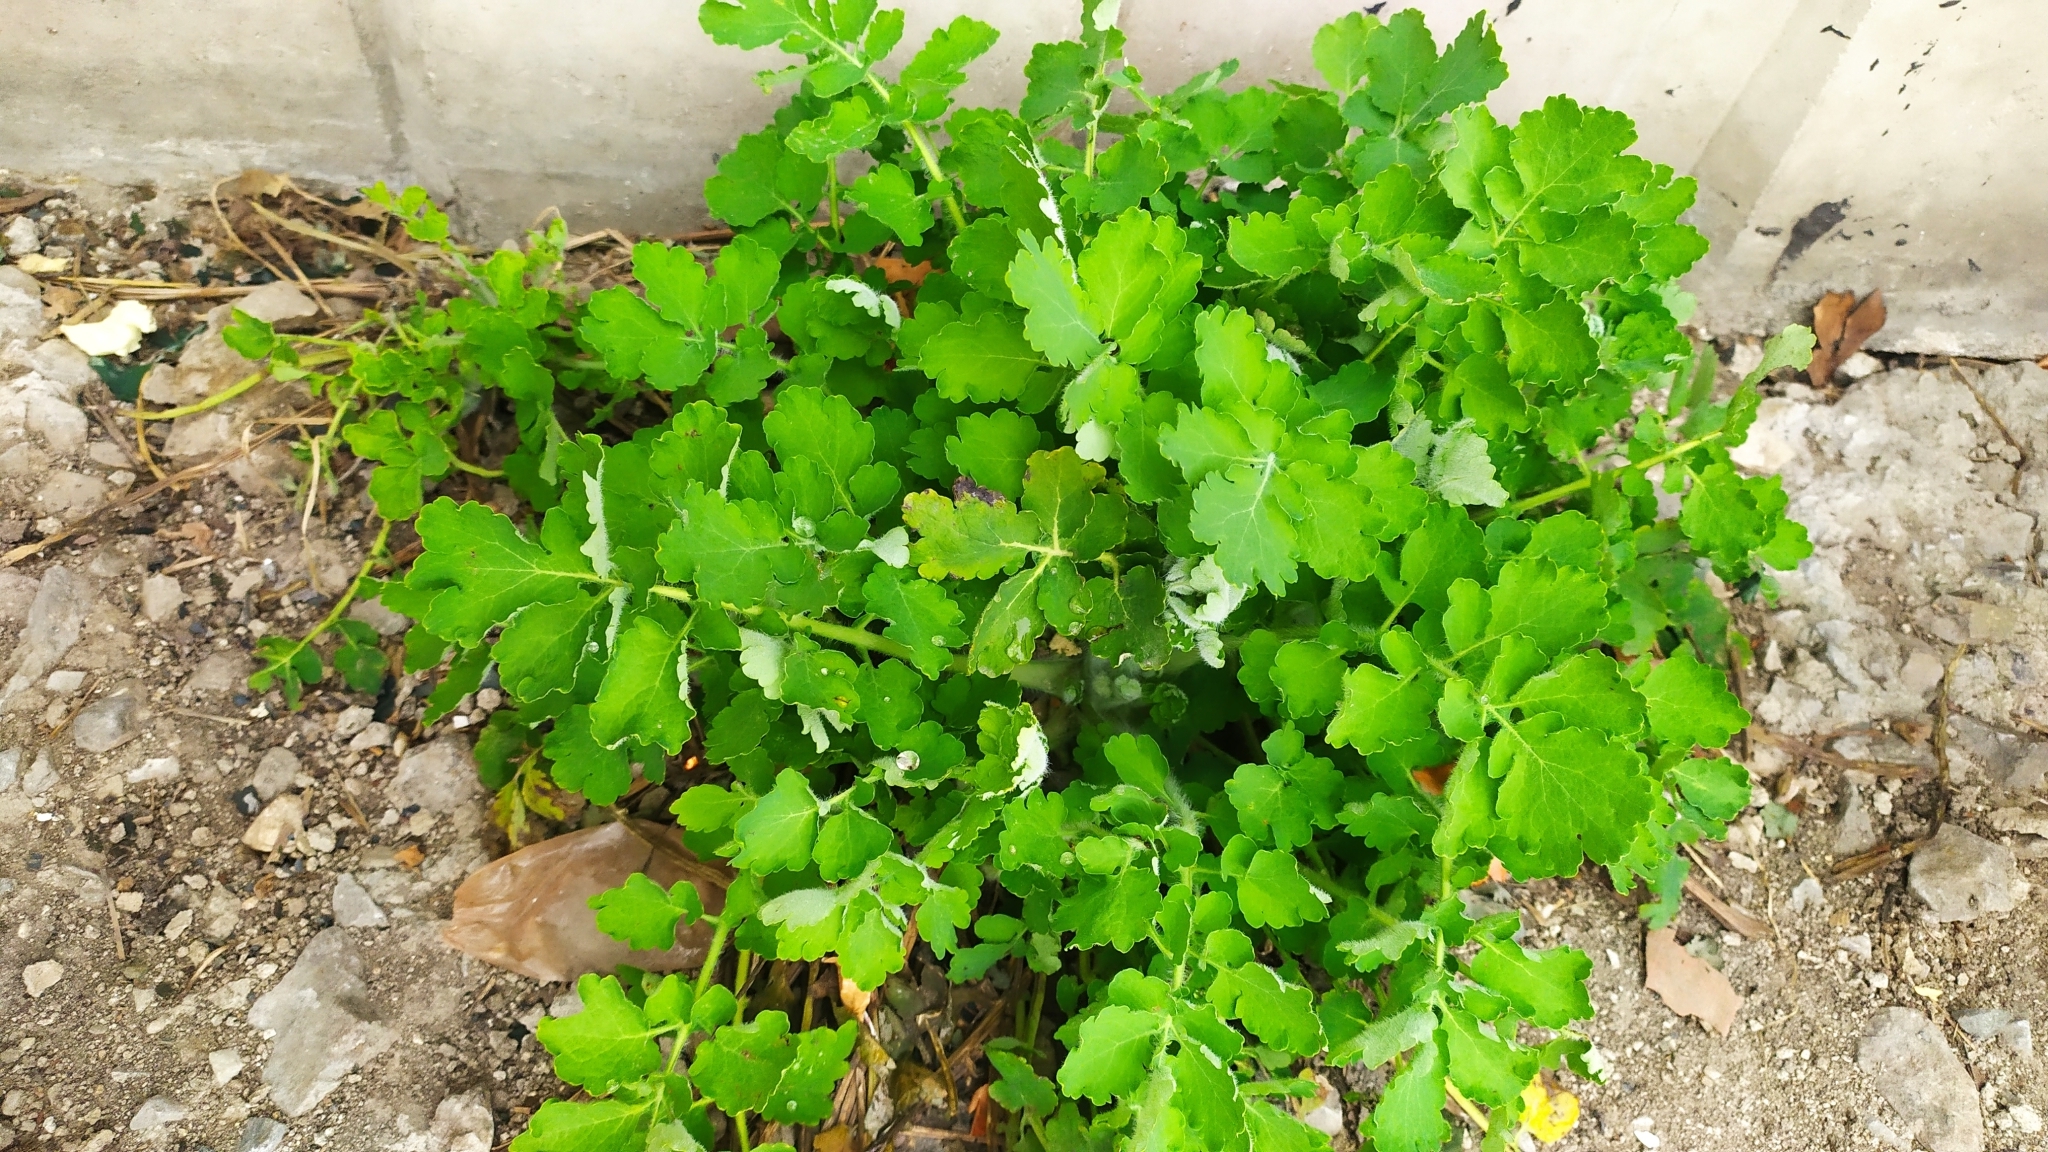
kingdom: Plantae
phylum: Tracheophyta
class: Magnoliopsida
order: Ranunculales
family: Papaveraceae
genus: Chelidonium
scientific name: Chelidonium majus
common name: Greater celandine
